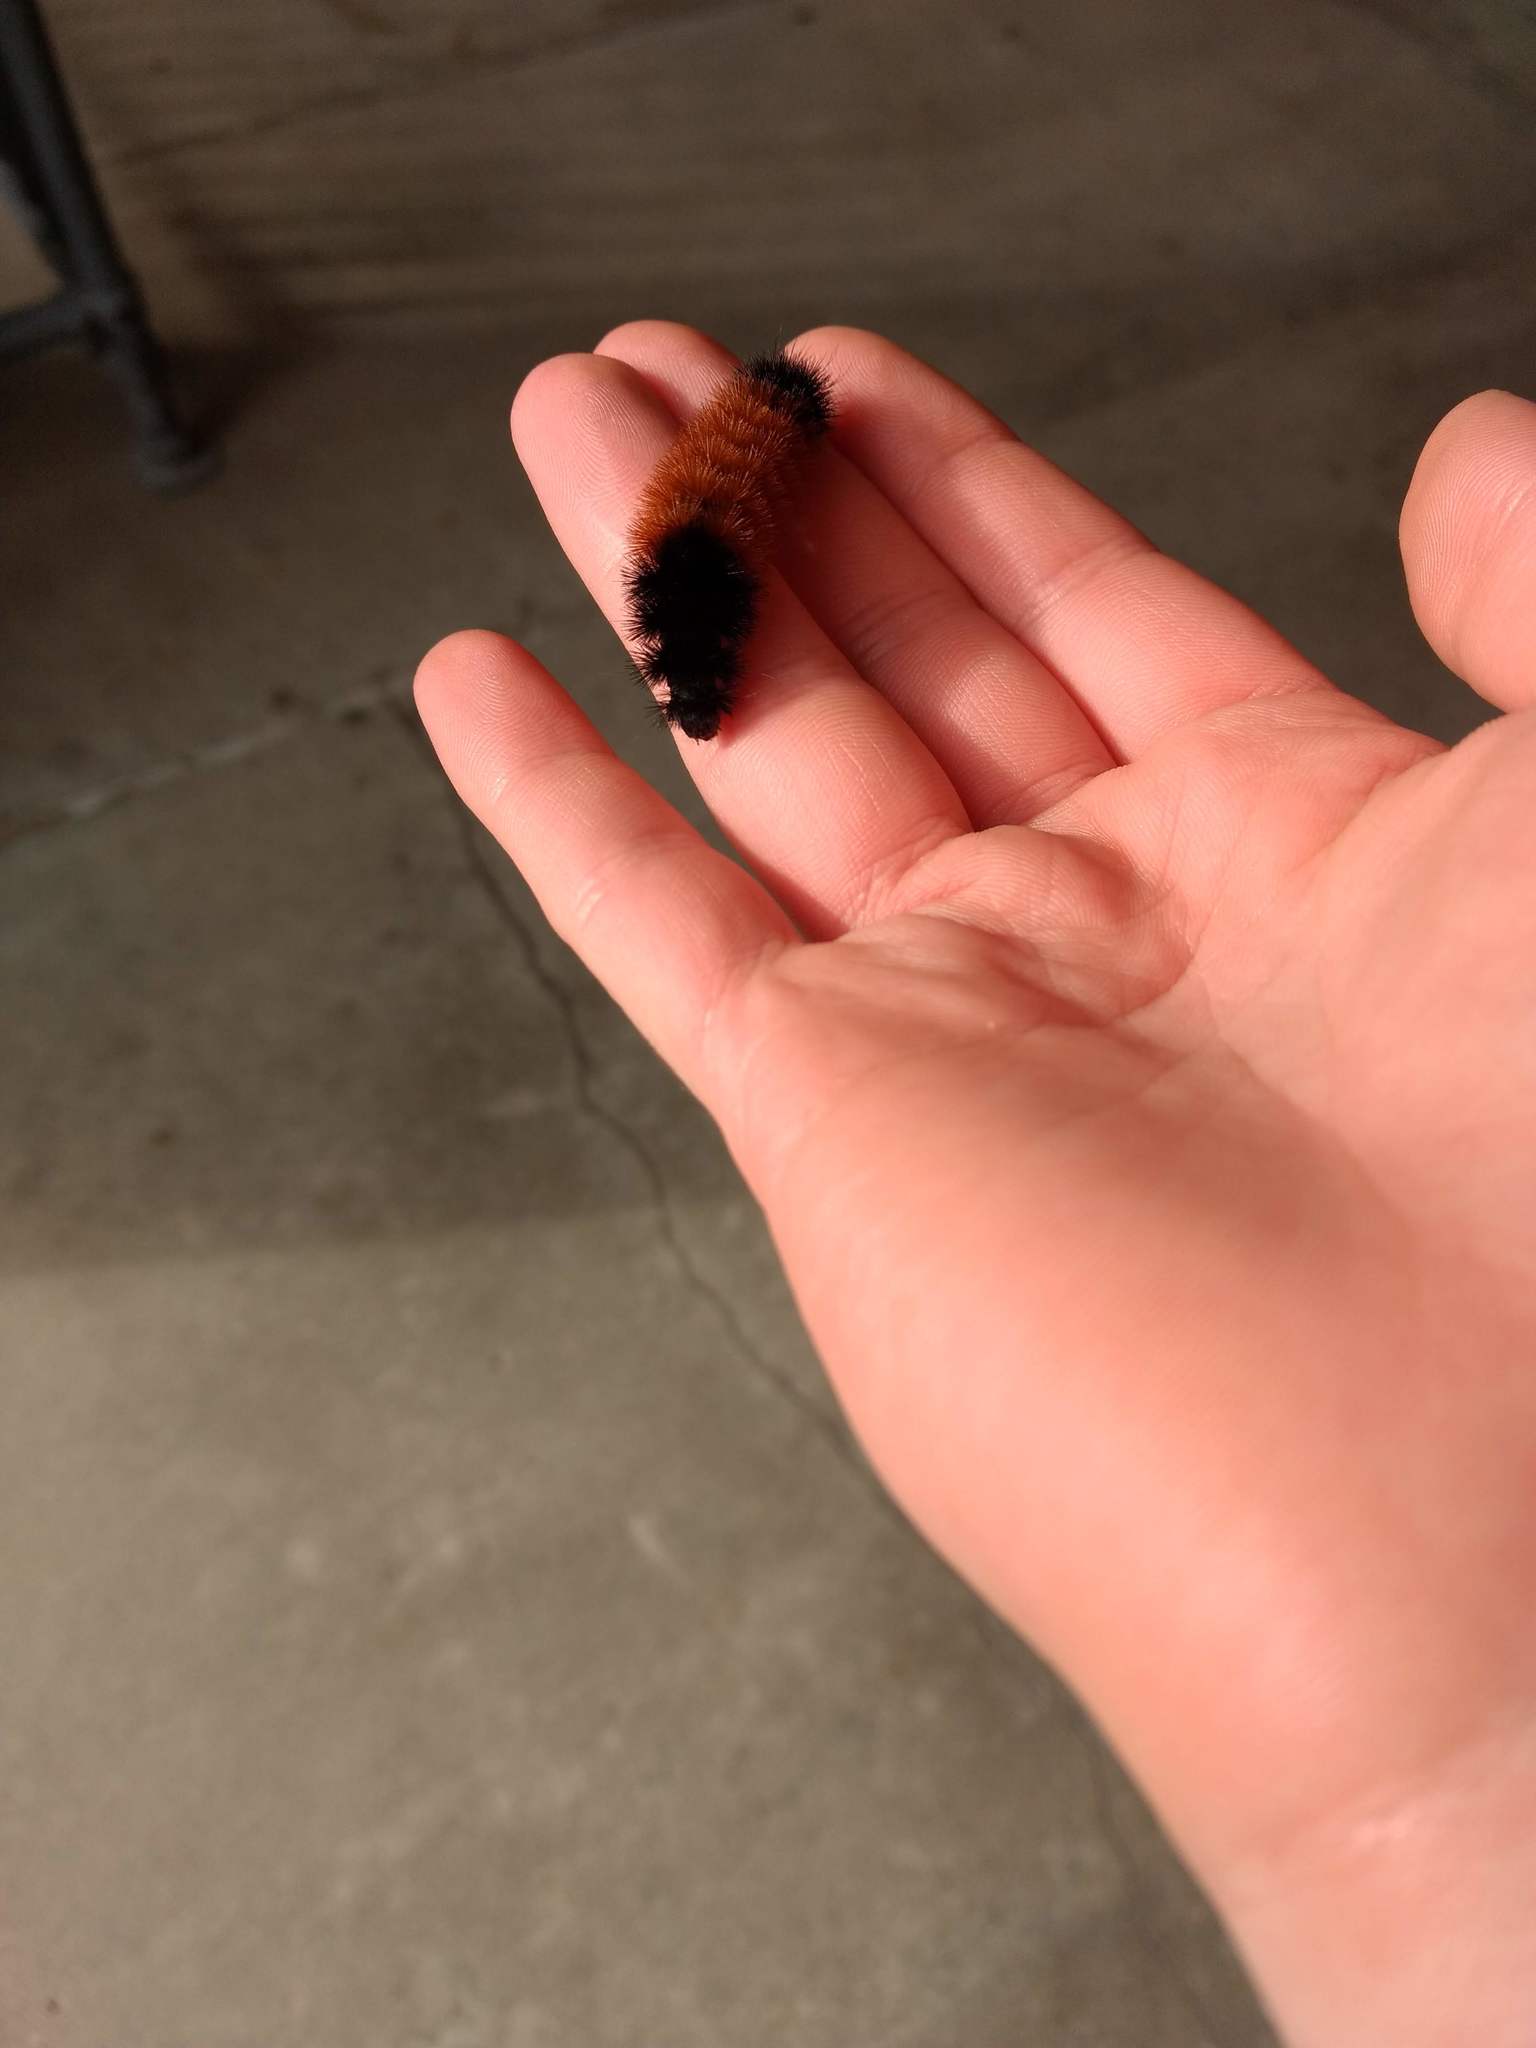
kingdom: Animalia
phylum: Arthropoda
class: Insecta
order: Lepidoptera
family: Erebidae
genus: Pyrrharctia
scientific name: Pyrrharctia isabella
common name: Isabella tiger moth
